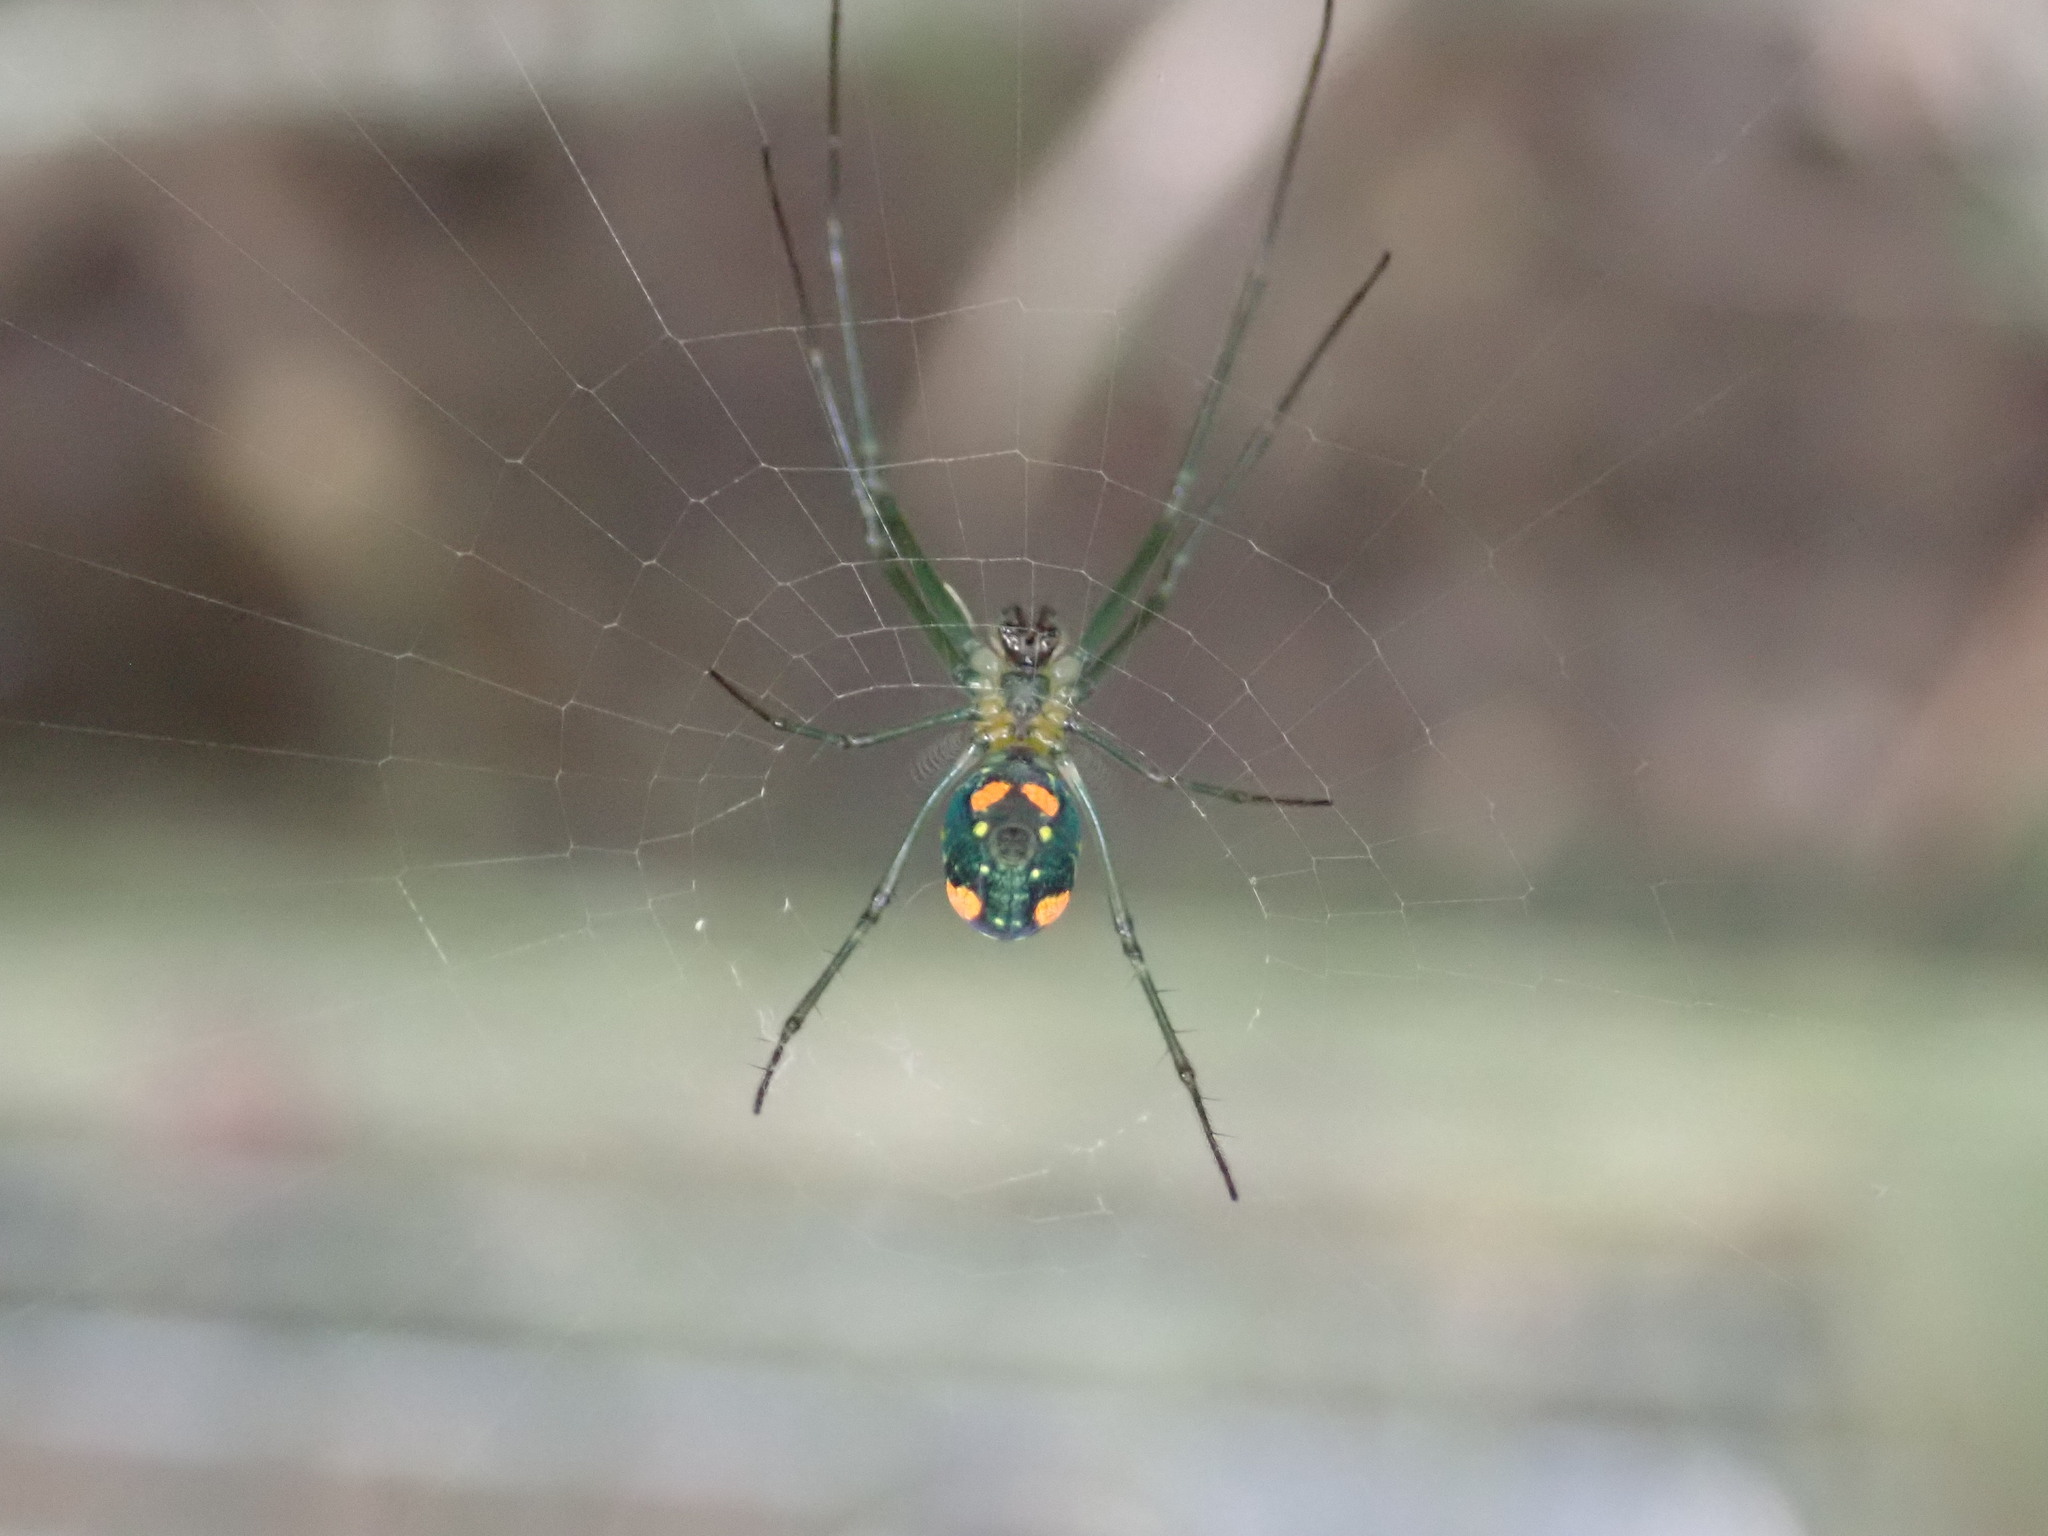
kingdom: Animalia
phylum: Arthropoda
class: Arachnida
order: Araneae
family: Tetragnathidae
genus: Leucauge
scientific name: Leucauge argyrobapta
